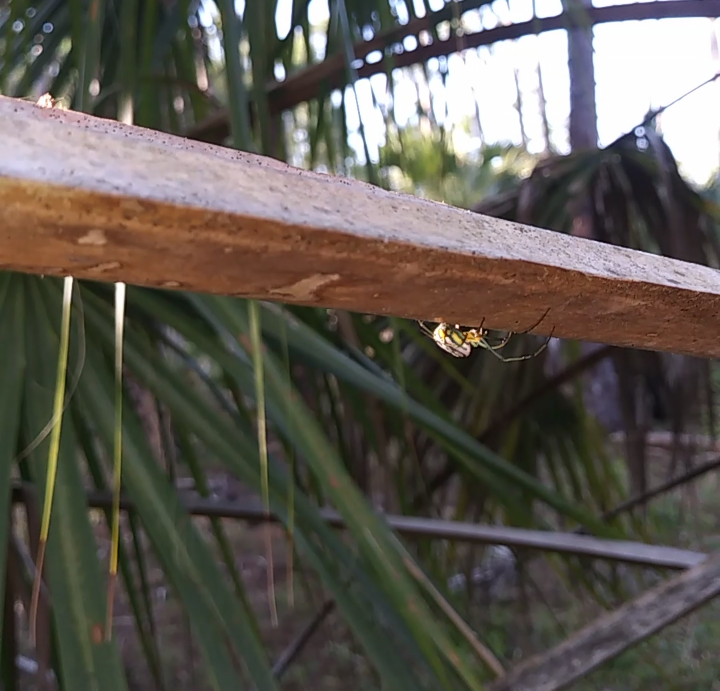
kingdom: Animalia
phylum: Arthropoda
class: Arachnida
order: Araneae
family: Tetragnathidae
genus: Leucauge
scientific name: Leucauge argyrobapta
